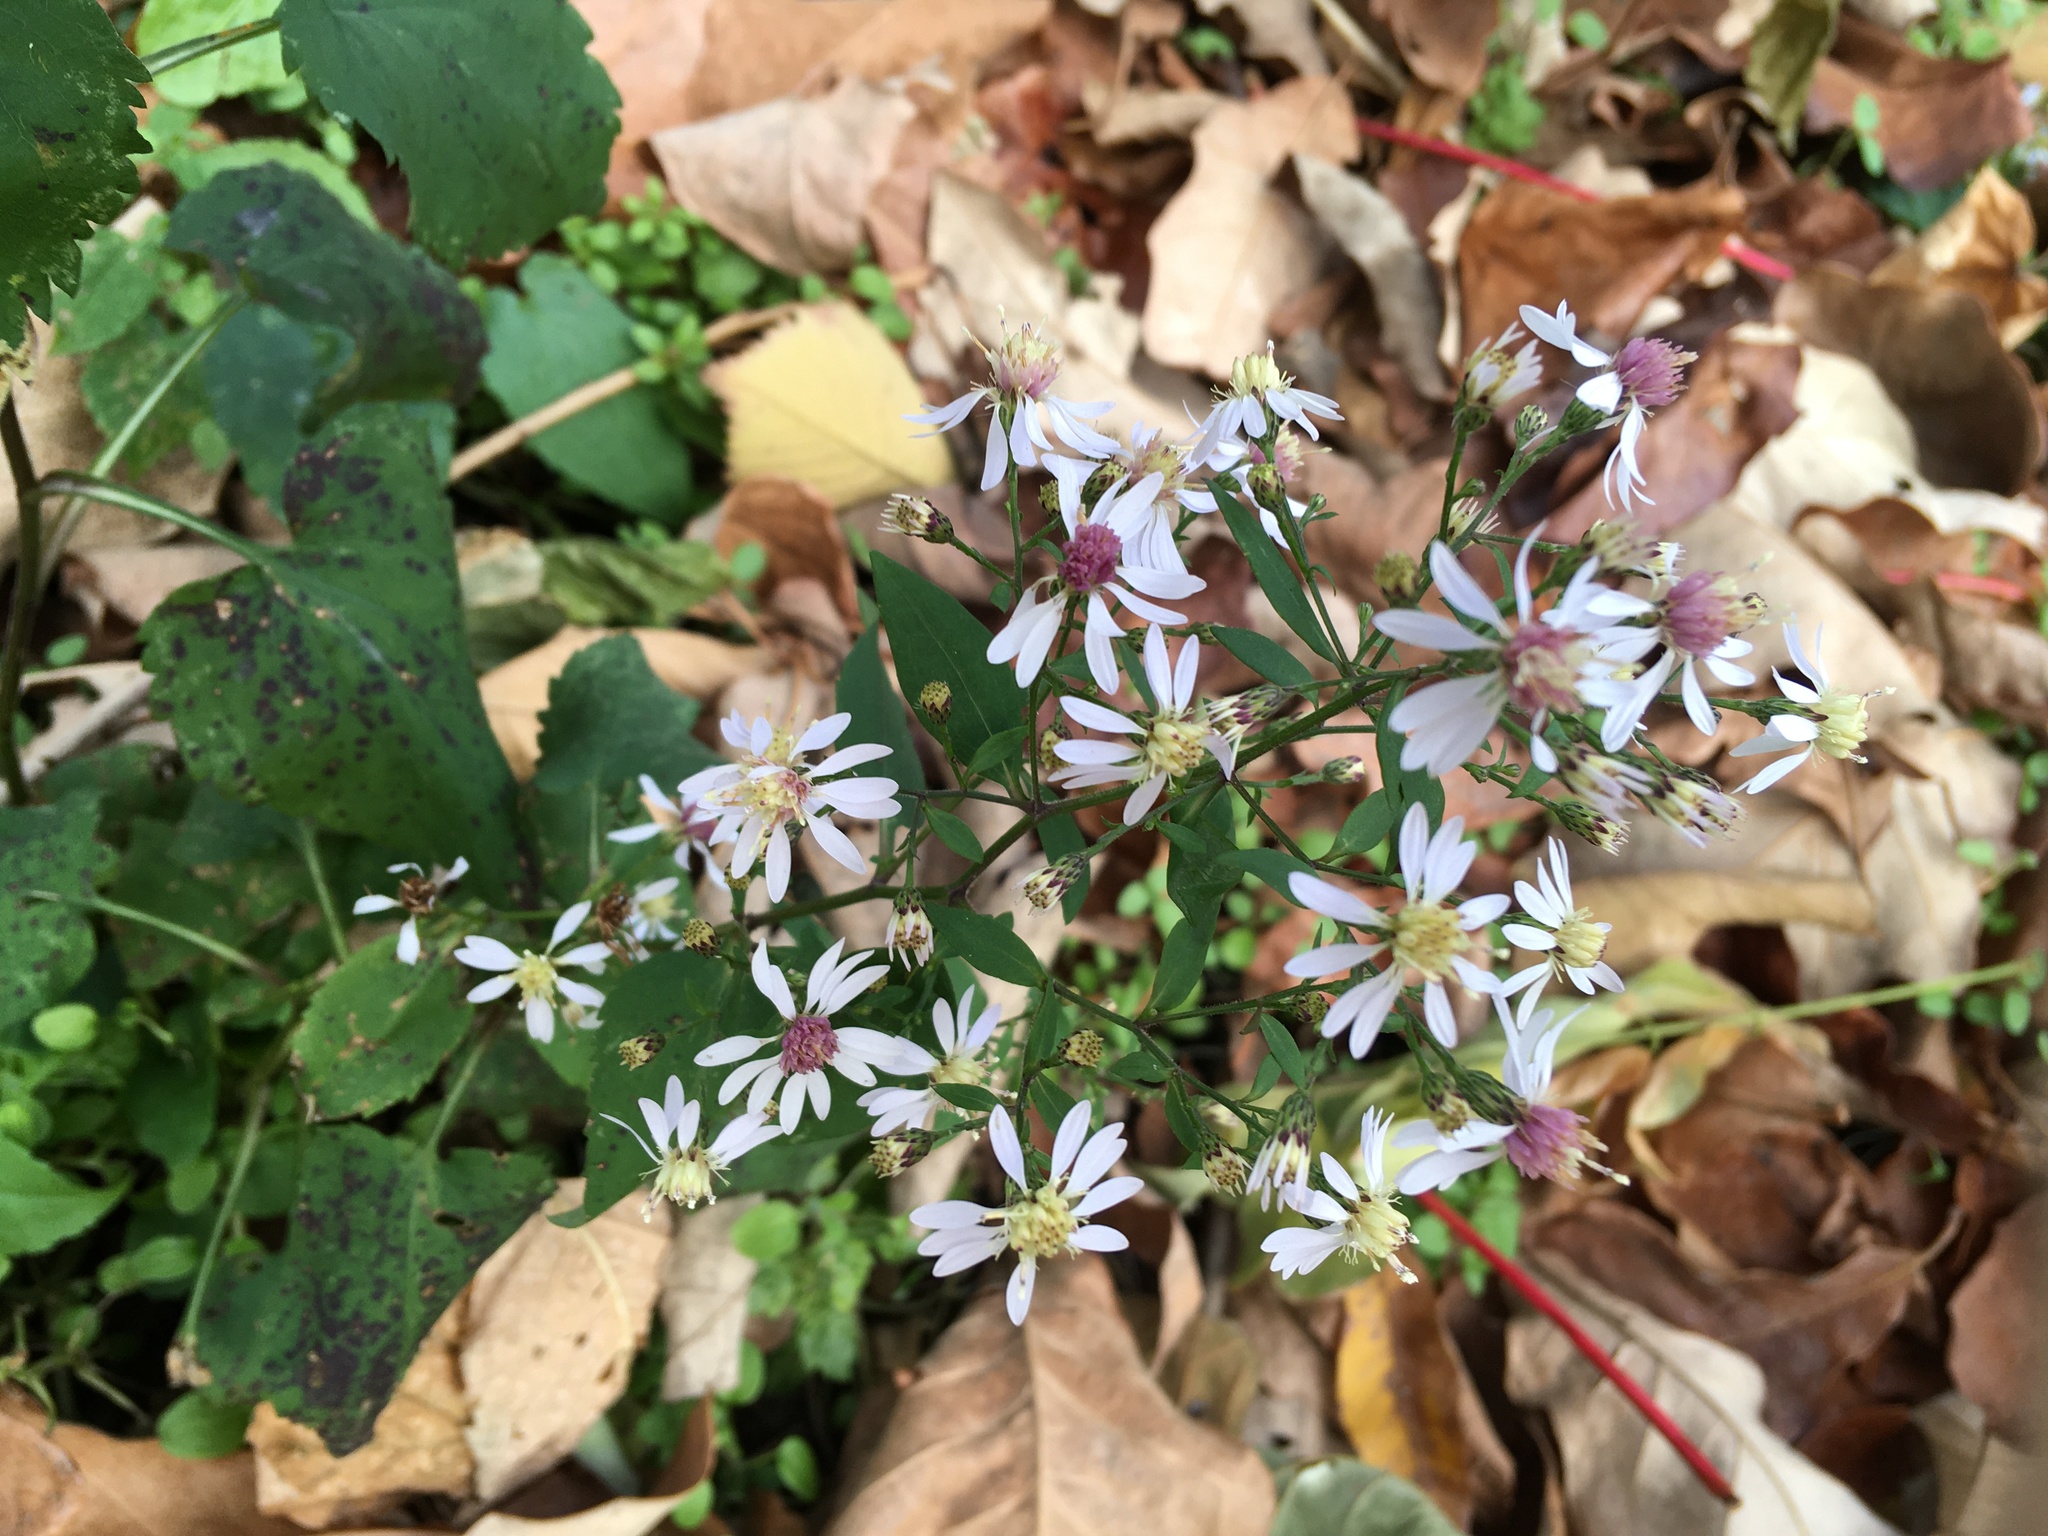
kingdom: Plantae
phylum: Tracheophyta
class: Magnoliopsida
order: Asterales
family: Asteraceae
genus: Symphyotrichum
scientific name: Symphyotrichum cordifolium
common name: Beeweed
